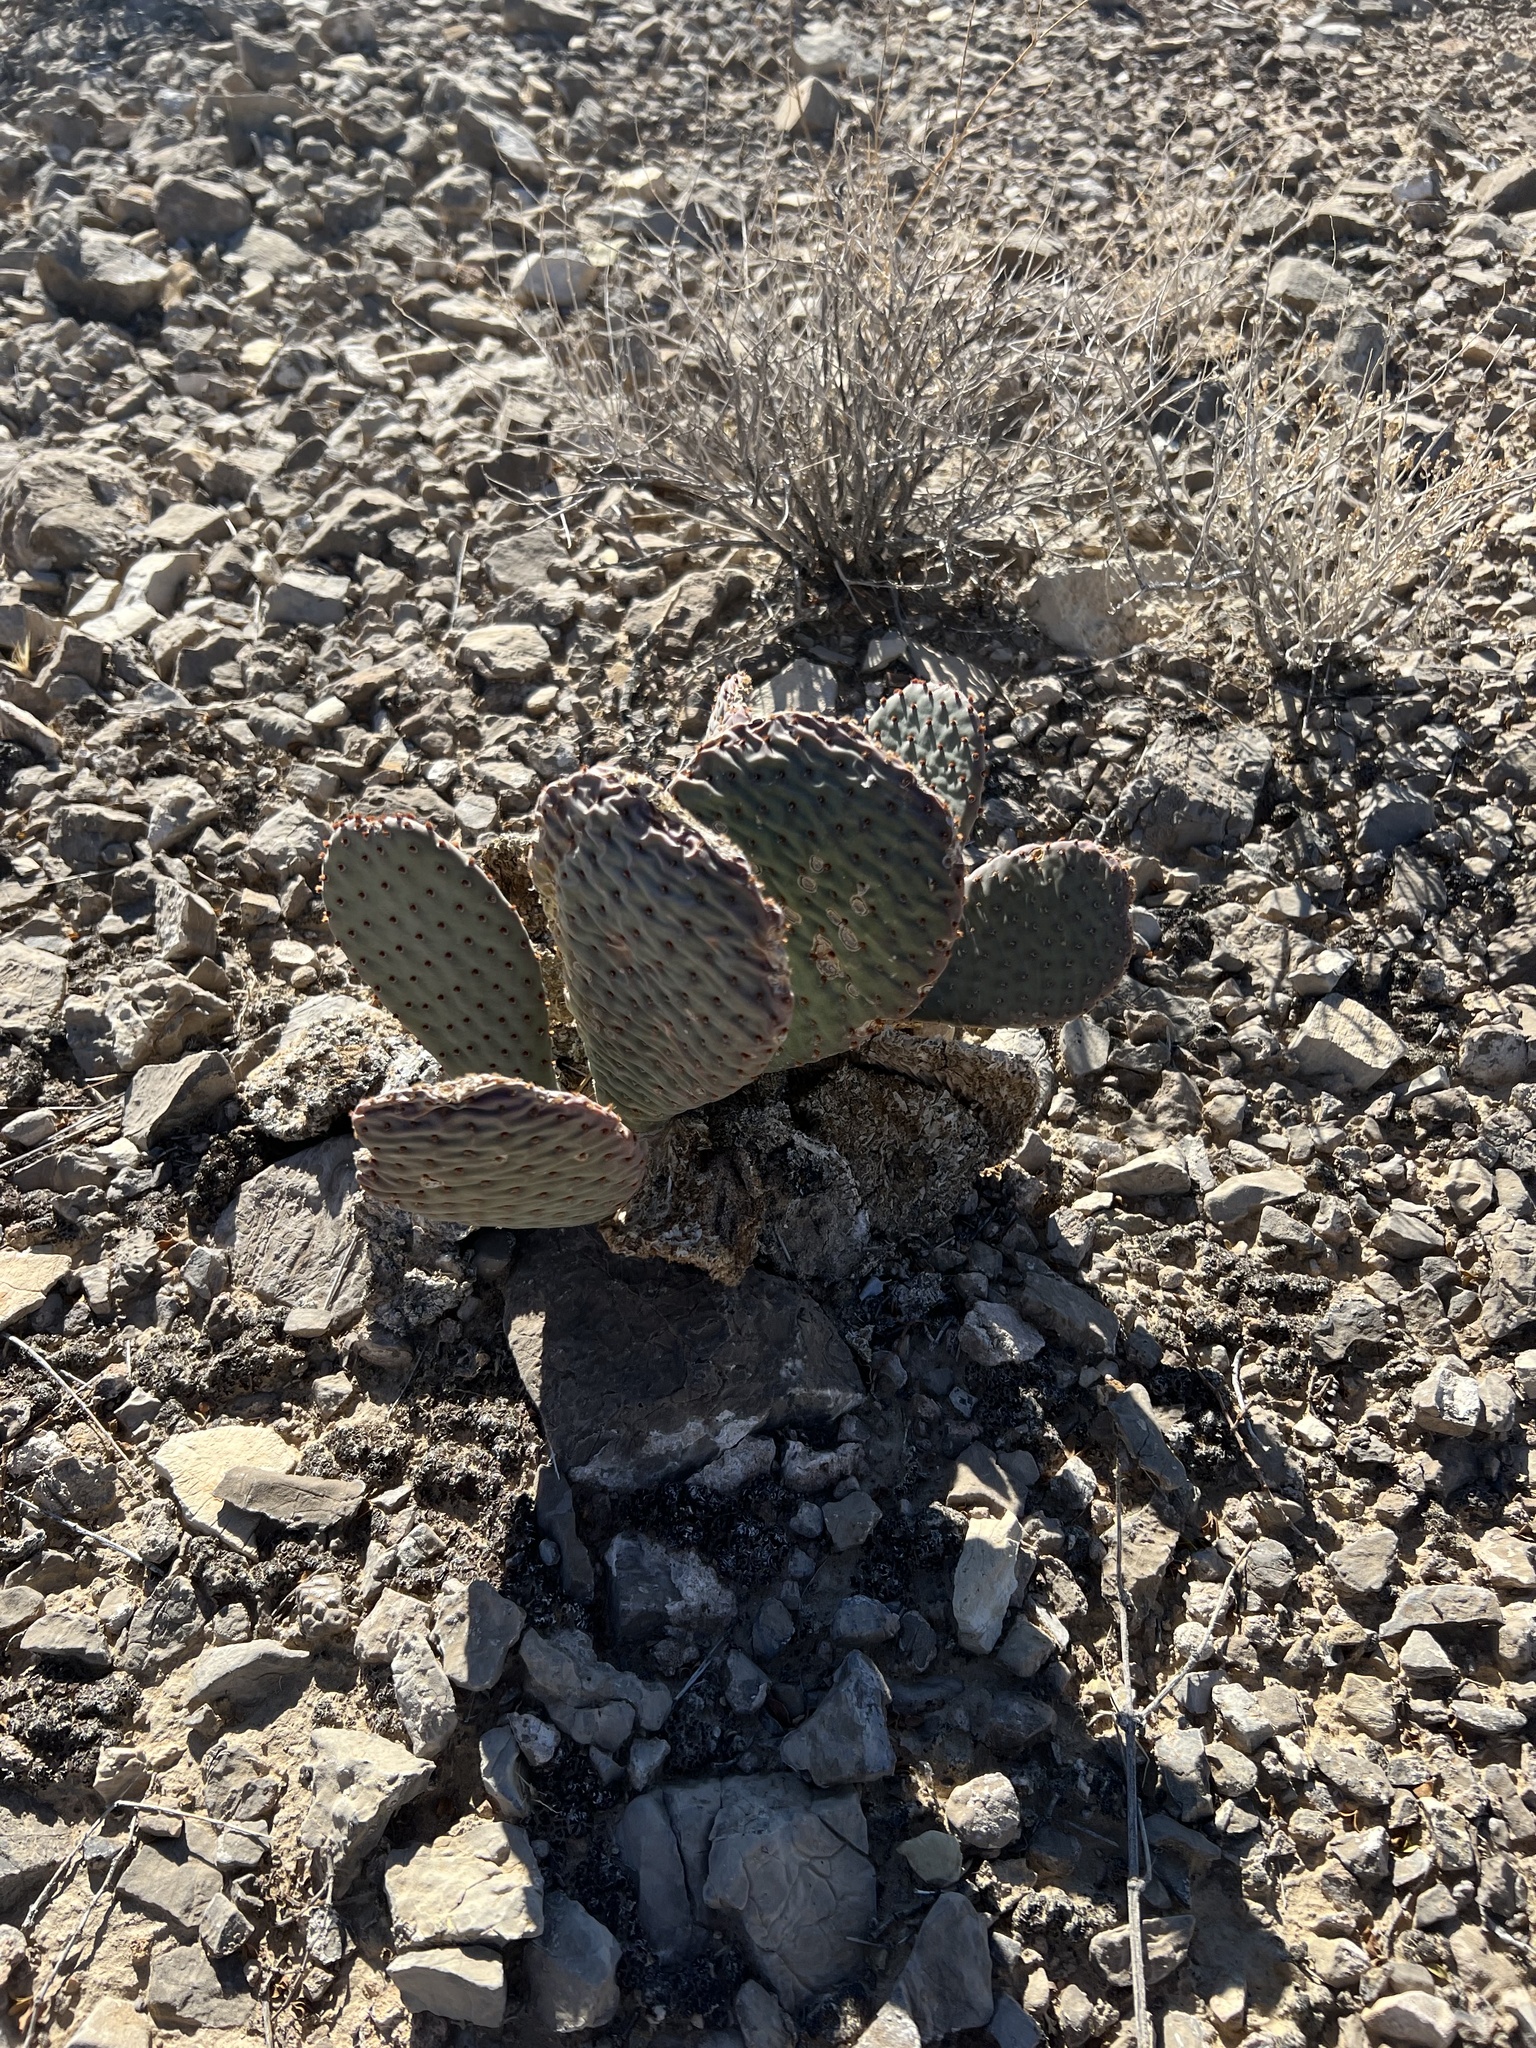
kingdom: Plantae
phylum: Tracheophyta
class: Magnoliopsida
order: Caryophyllales
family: Cactaceae
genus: Opuntia
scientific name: Opuntia basilaris
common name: Beavertail prickly-pear
